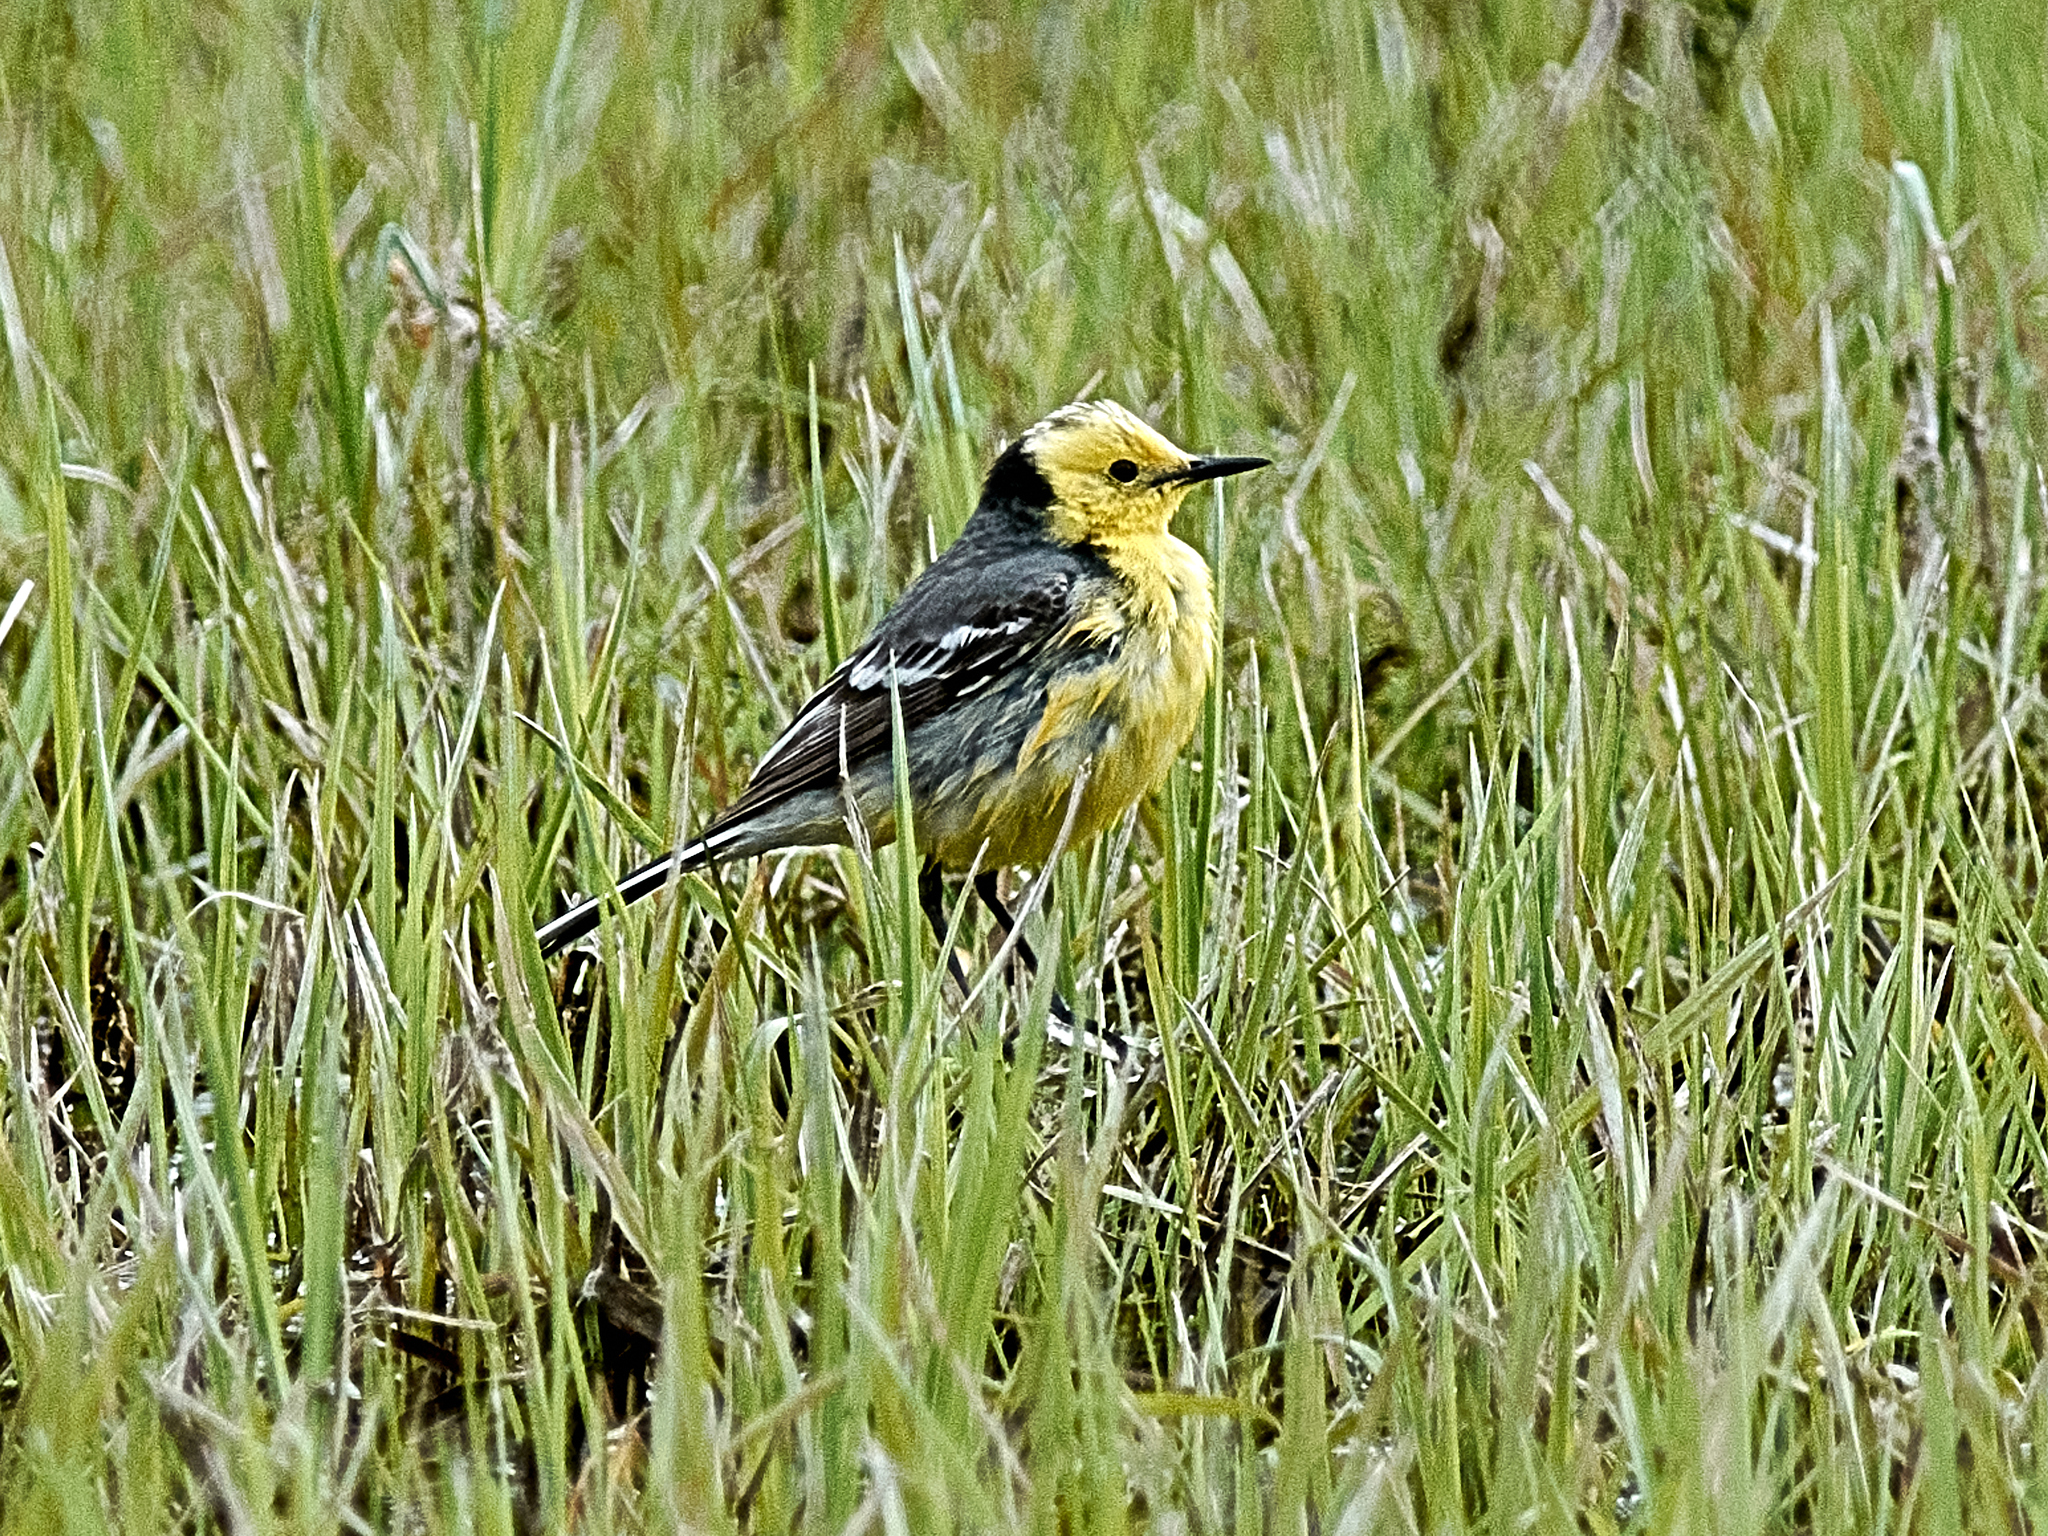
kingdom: Animalia
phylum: Chordata
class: Aves
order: Passeriformes
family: Motacillidae
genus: Motacilla
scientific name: Motacilla citreola
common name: Citrine wagtail
